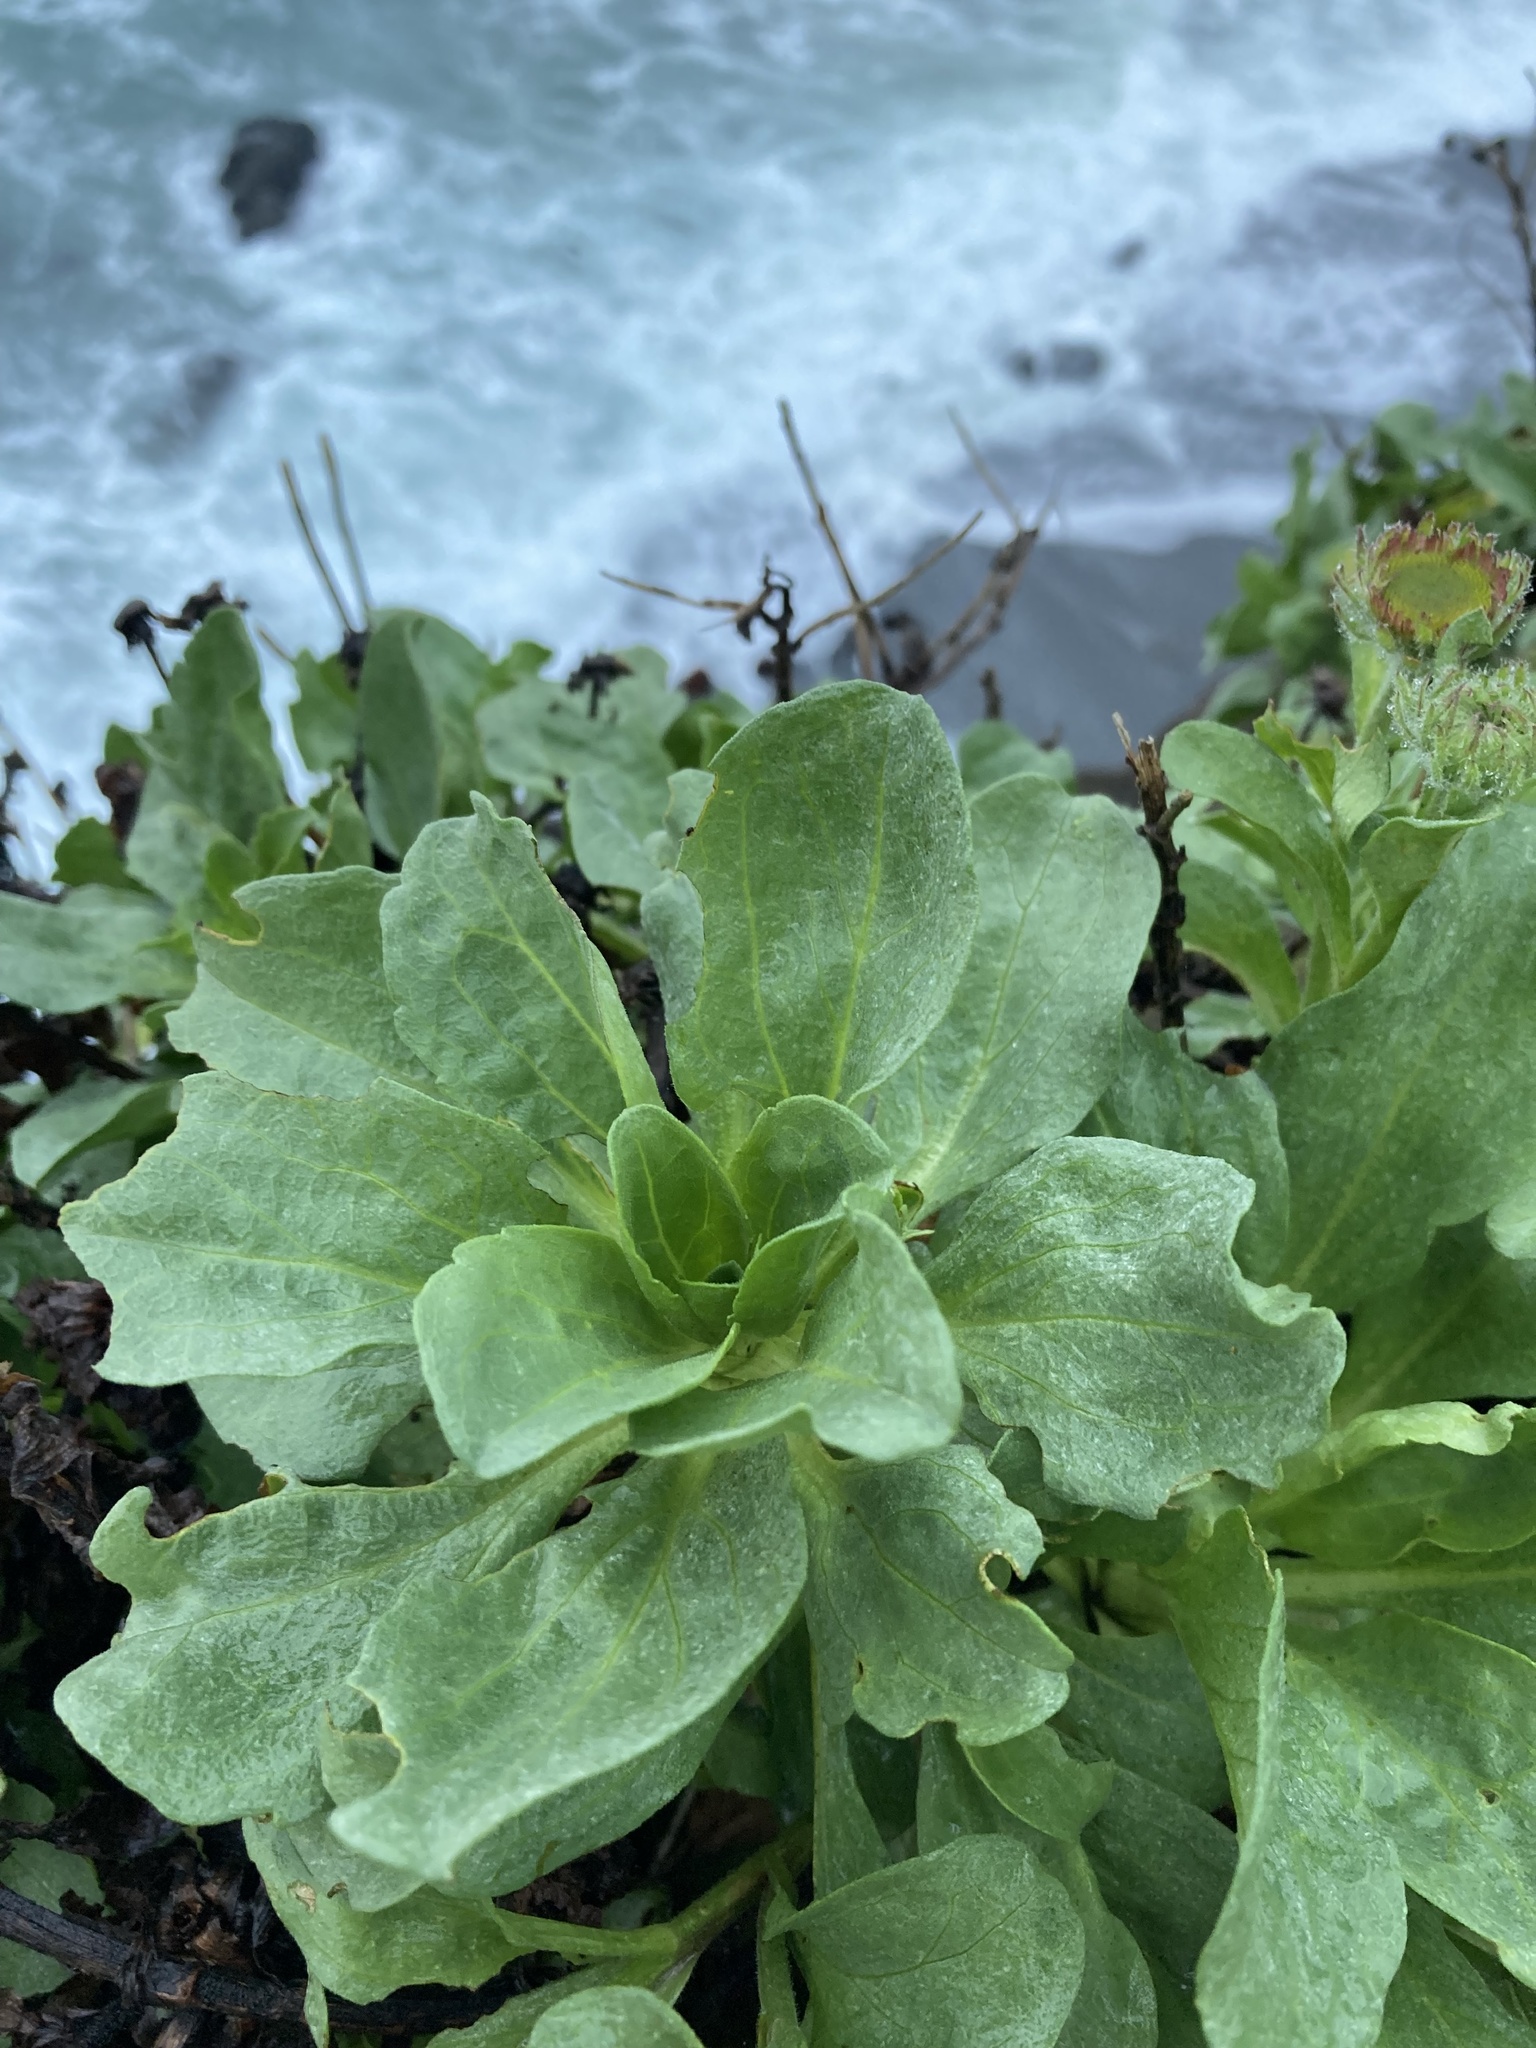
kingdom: Plantae
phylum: Tracheophyta
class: Magnoliopsida
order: Asterales
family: Asteraceae
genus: Erigeron
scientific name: Erigeron glaucus
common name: Seaside daisy
